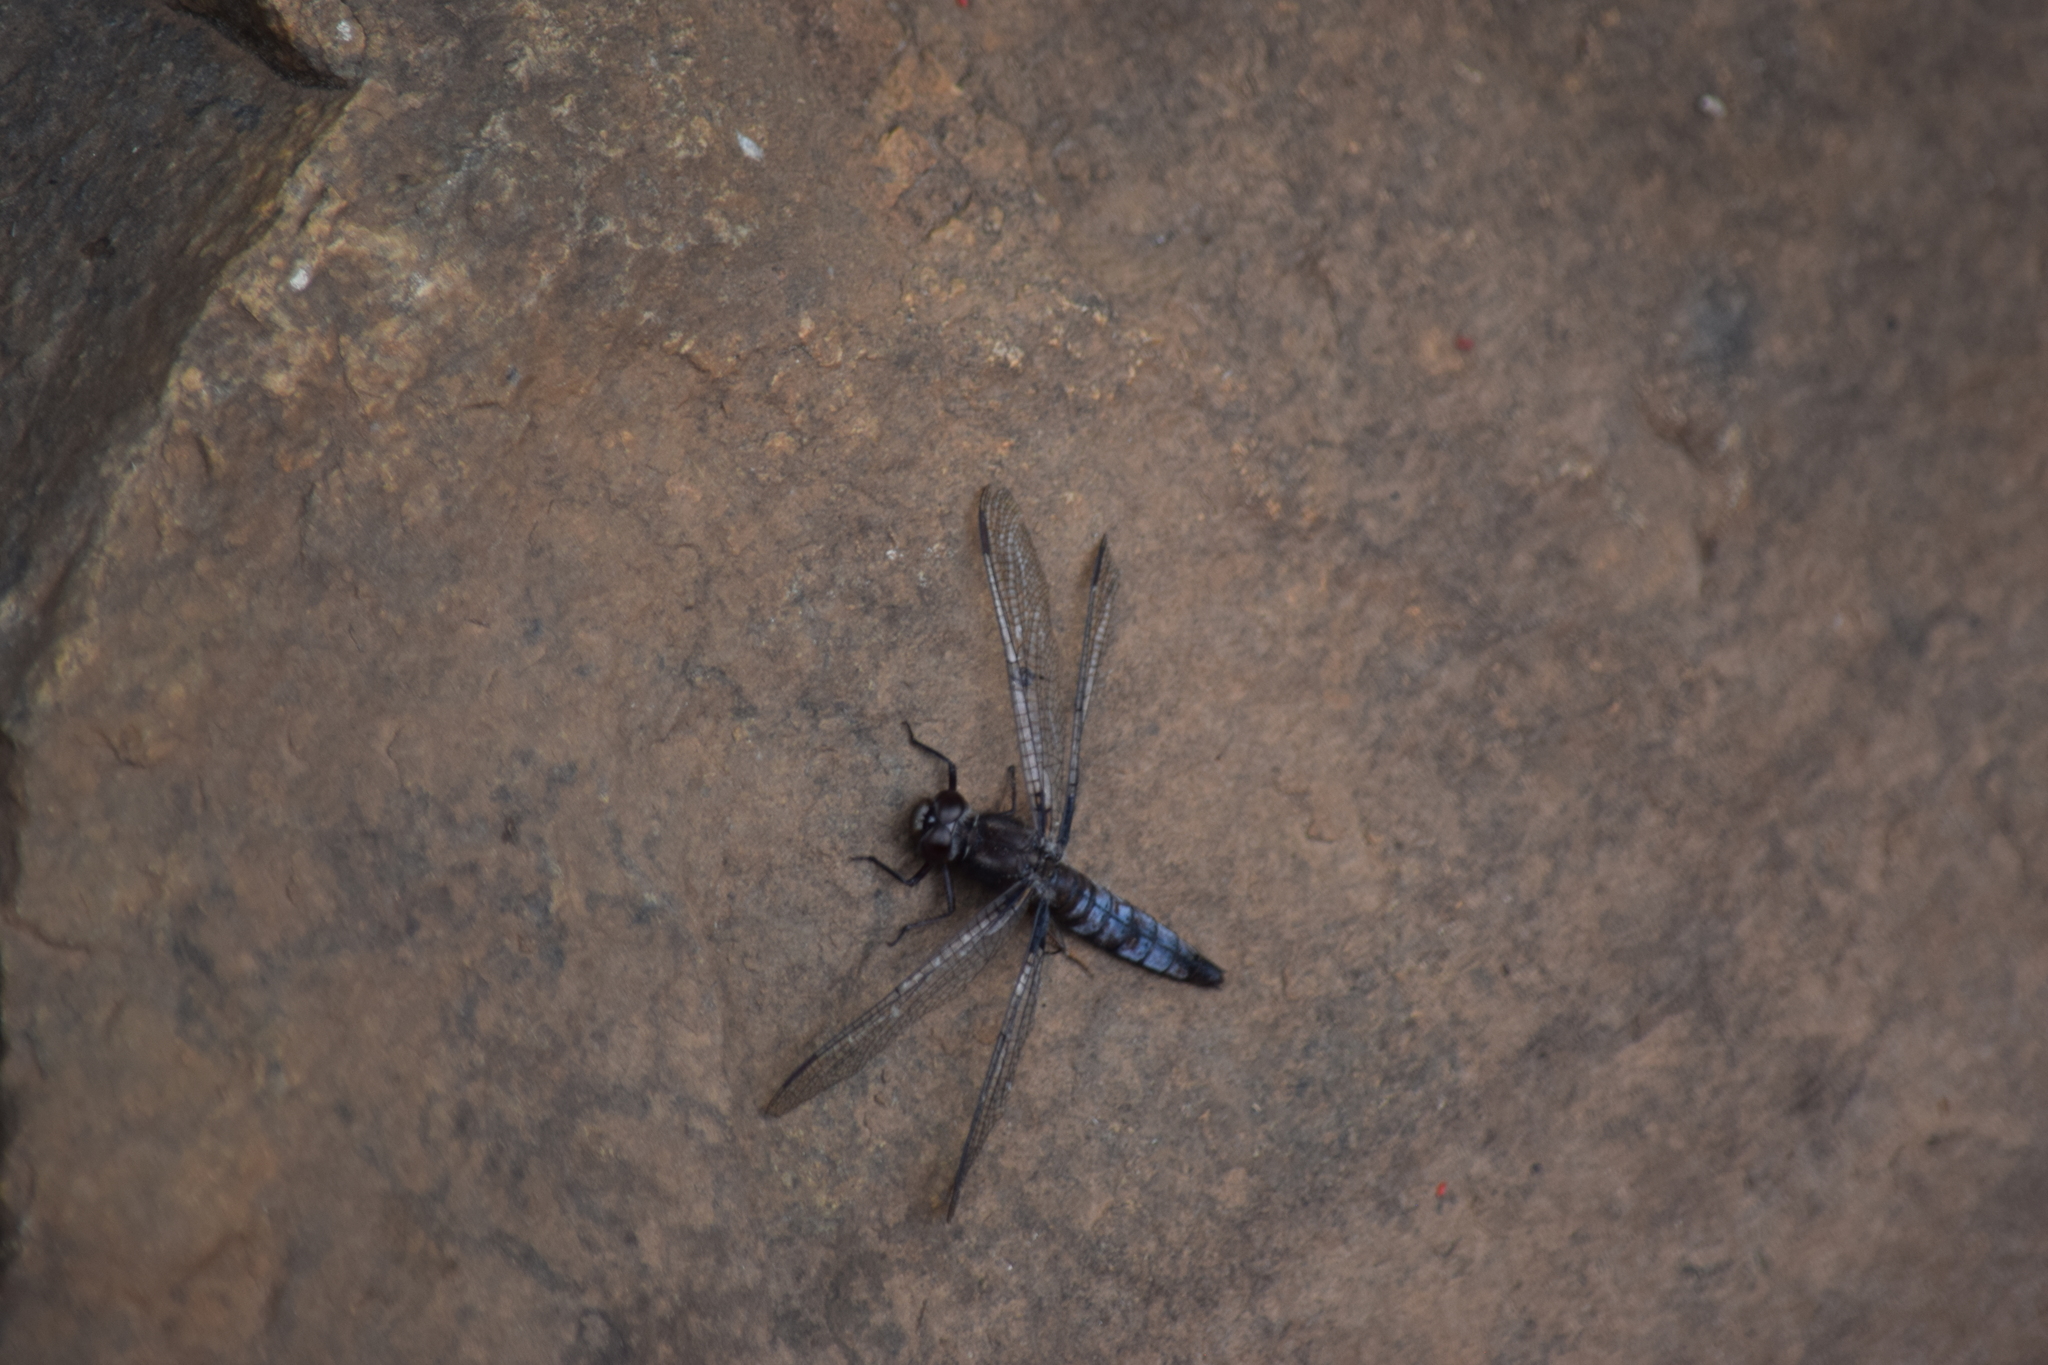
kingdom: Animalia
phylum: Arthropoda
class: Insecta
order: Odonata
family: Libellulidae
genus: Ladona
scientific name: Ladona deplanata
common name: Blue corporal
